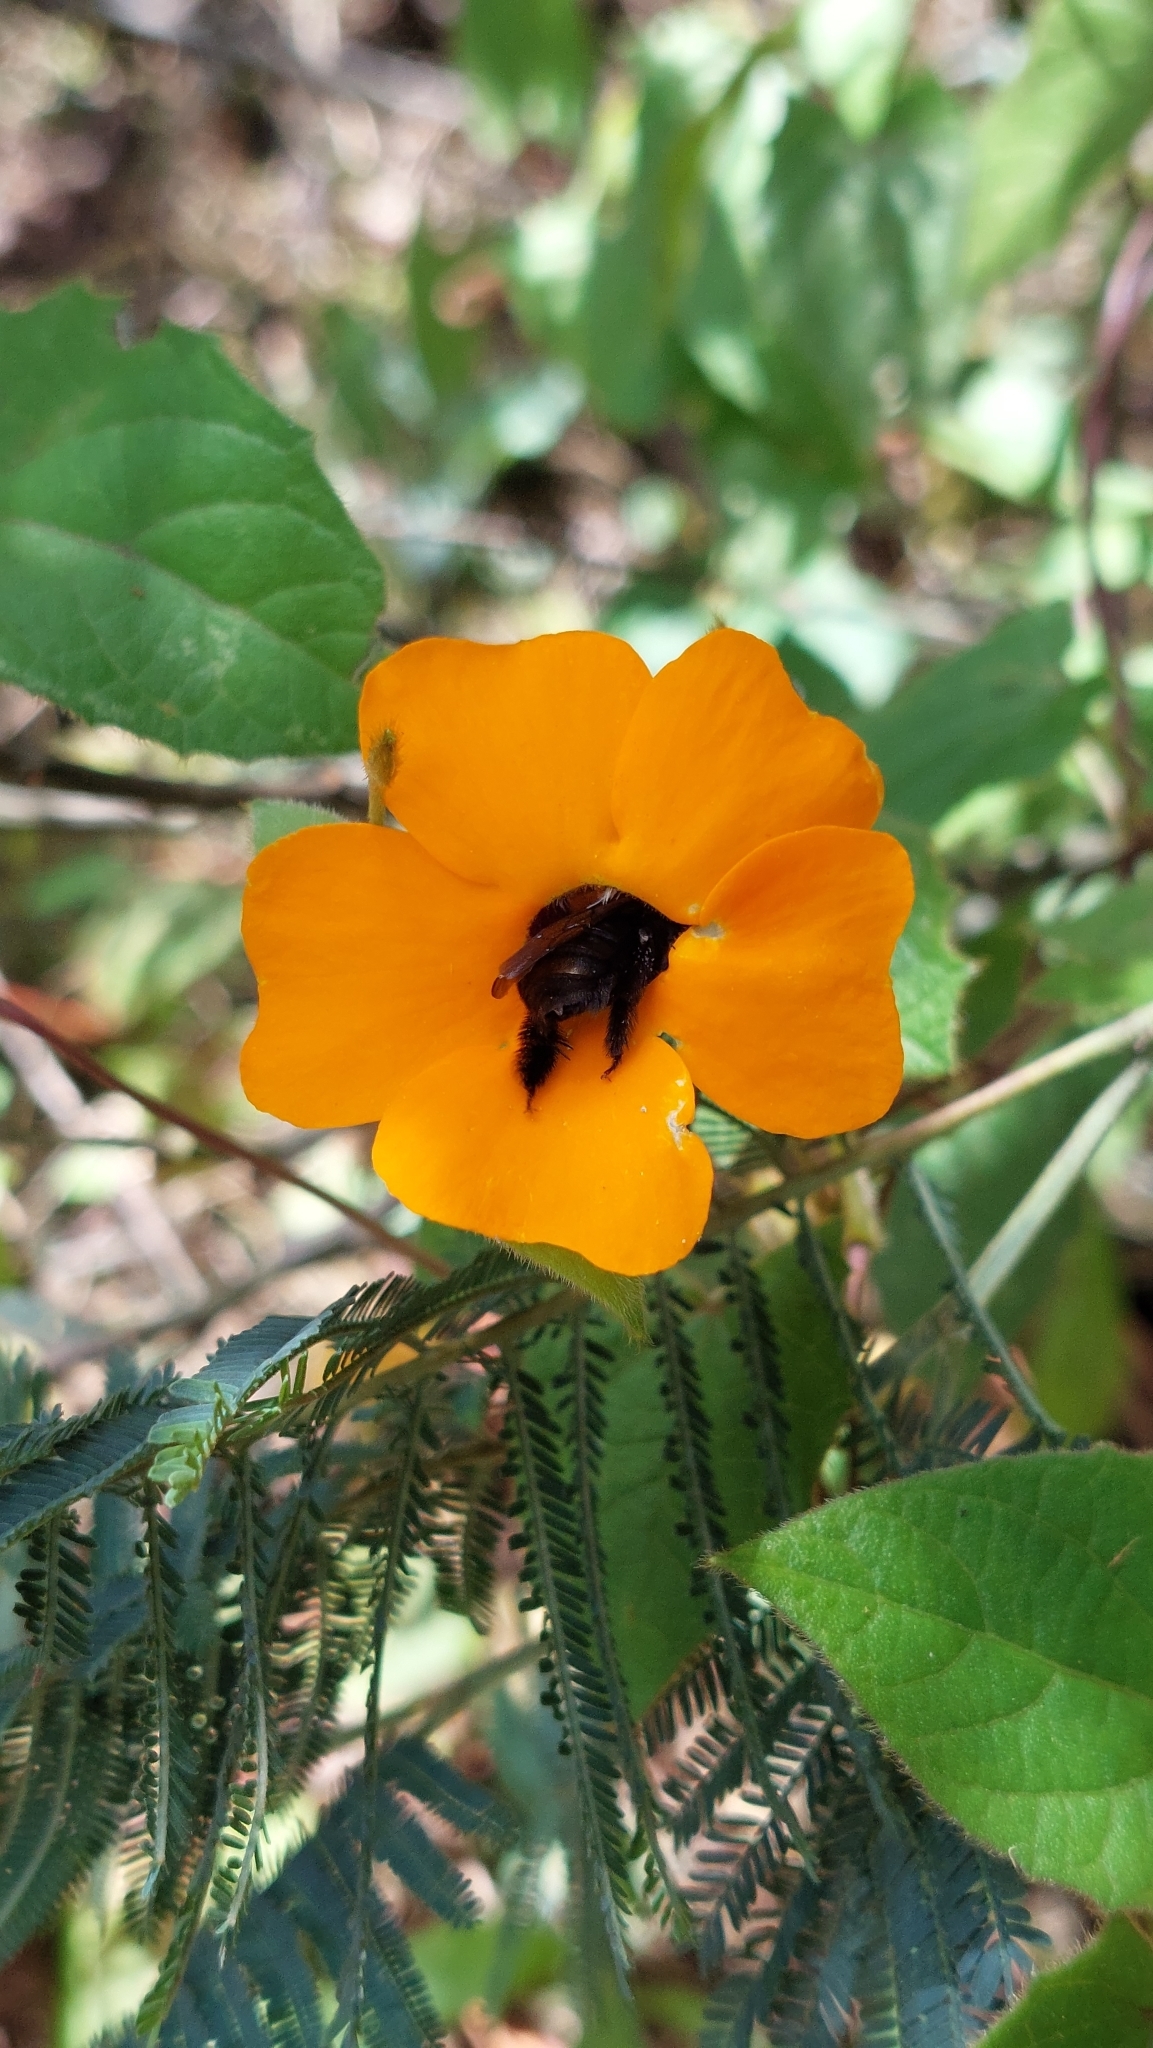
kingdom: Plantae
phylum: Tracheophyta
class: Magnoliopsida
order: Lamiales
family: Acanthaceae
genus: Thunbergia
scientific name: Thunbergia alata
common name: Blackeyed susan vine
